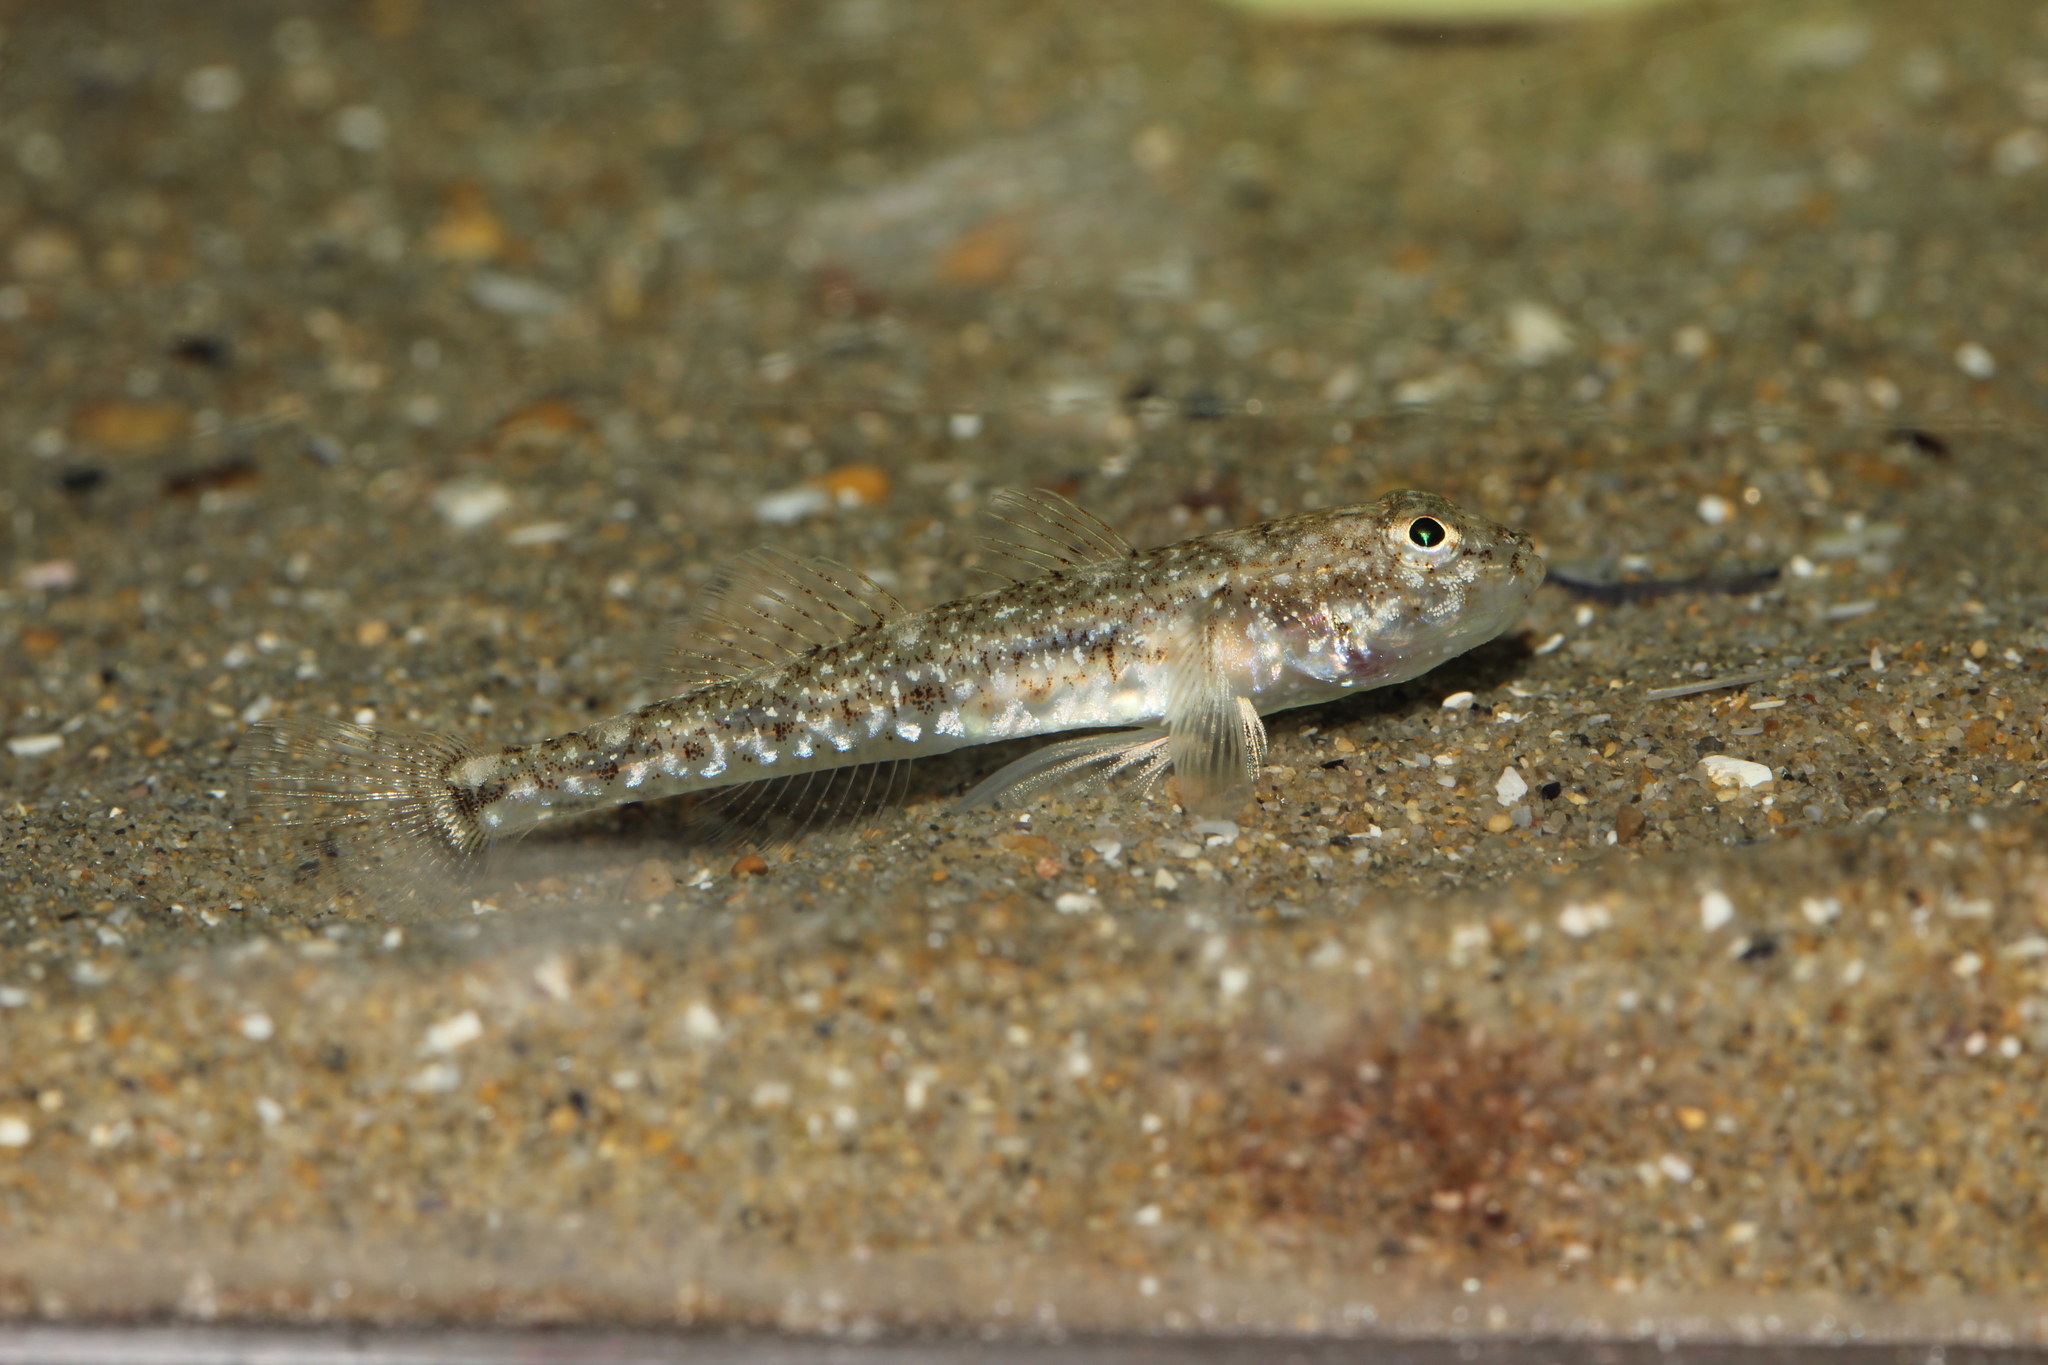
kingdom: Animalia
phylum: Chordata
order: Perciformes
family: Gobiidae
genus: Pomatoschistus
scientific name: Pomatoschistus marmoratus
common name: Marbled goby
